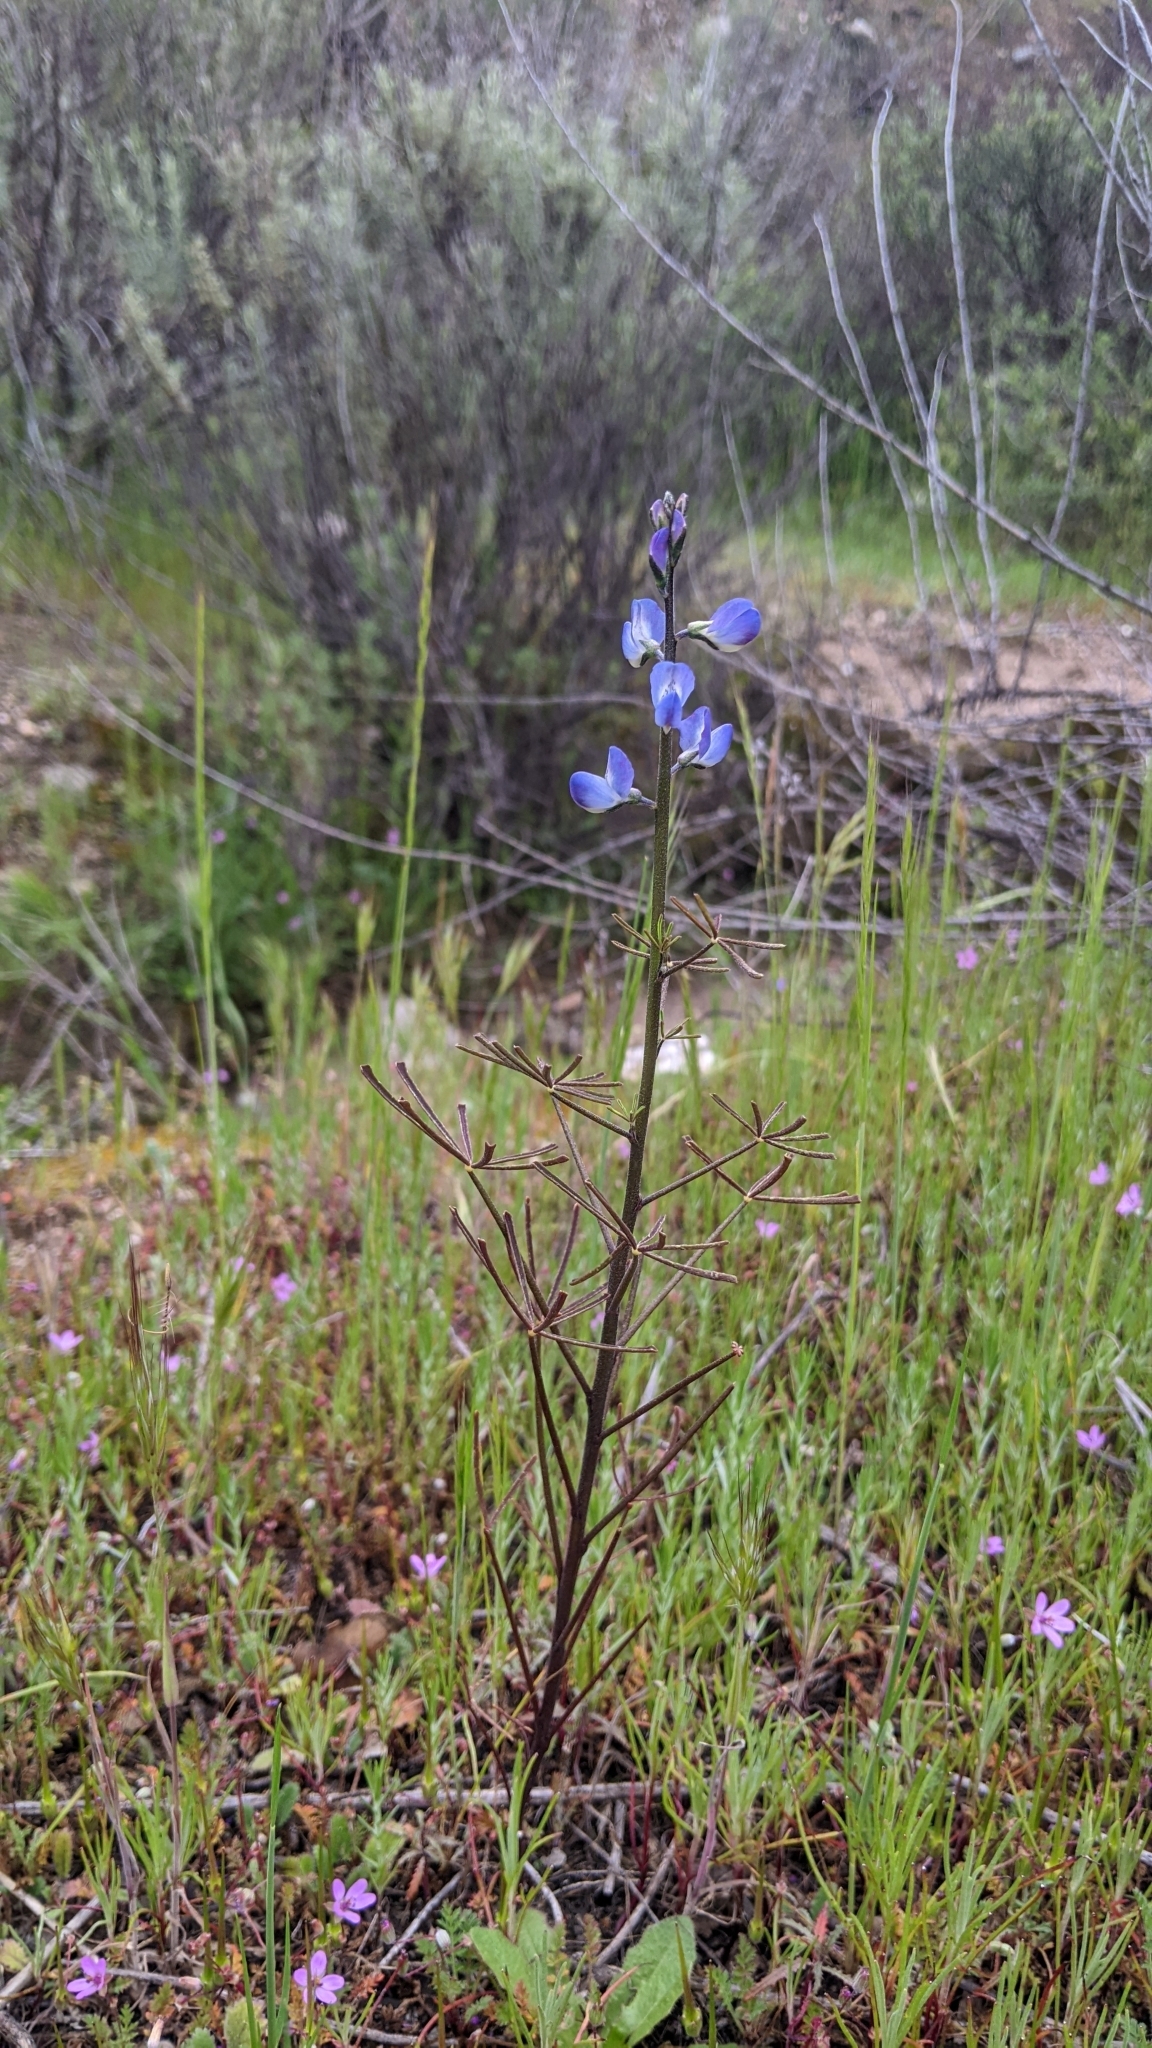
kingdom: Plantae
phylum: Tracheophyta
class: Magnoliopsida
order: Fabales
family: Fabaceae
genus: Lupinus
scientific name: Lupinus truncatus
